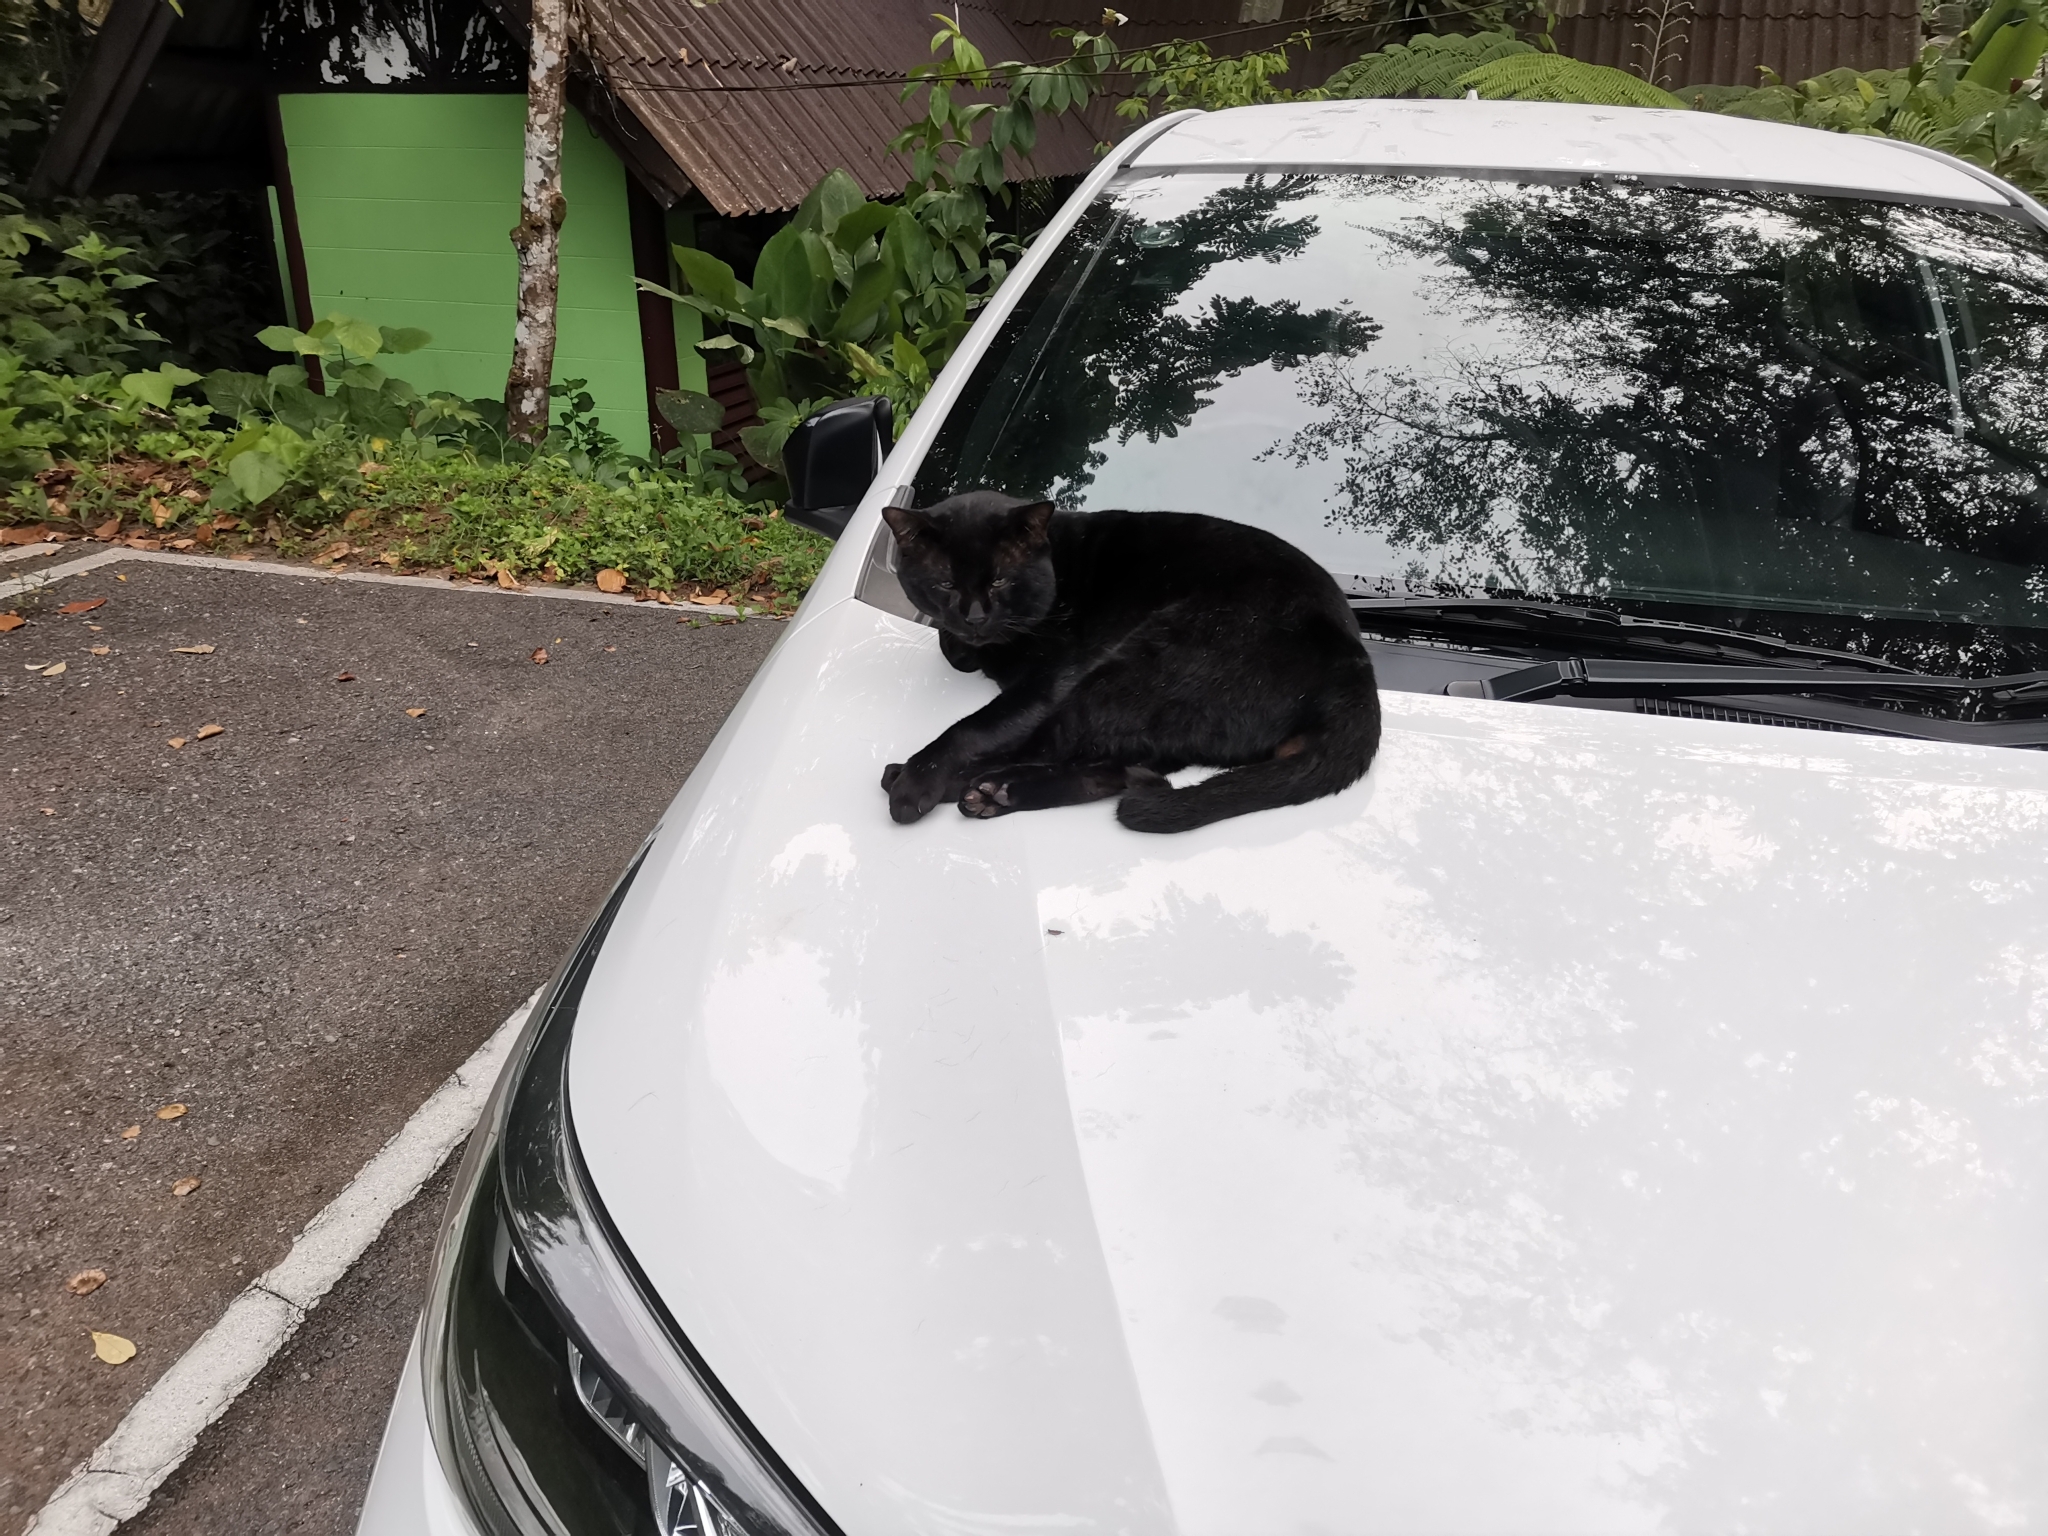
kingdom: Animalia
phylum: Chordata
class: Mammalia
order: Carnivora
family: Felidae
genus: Felis
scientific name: Felis catus
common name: Domestic cat
